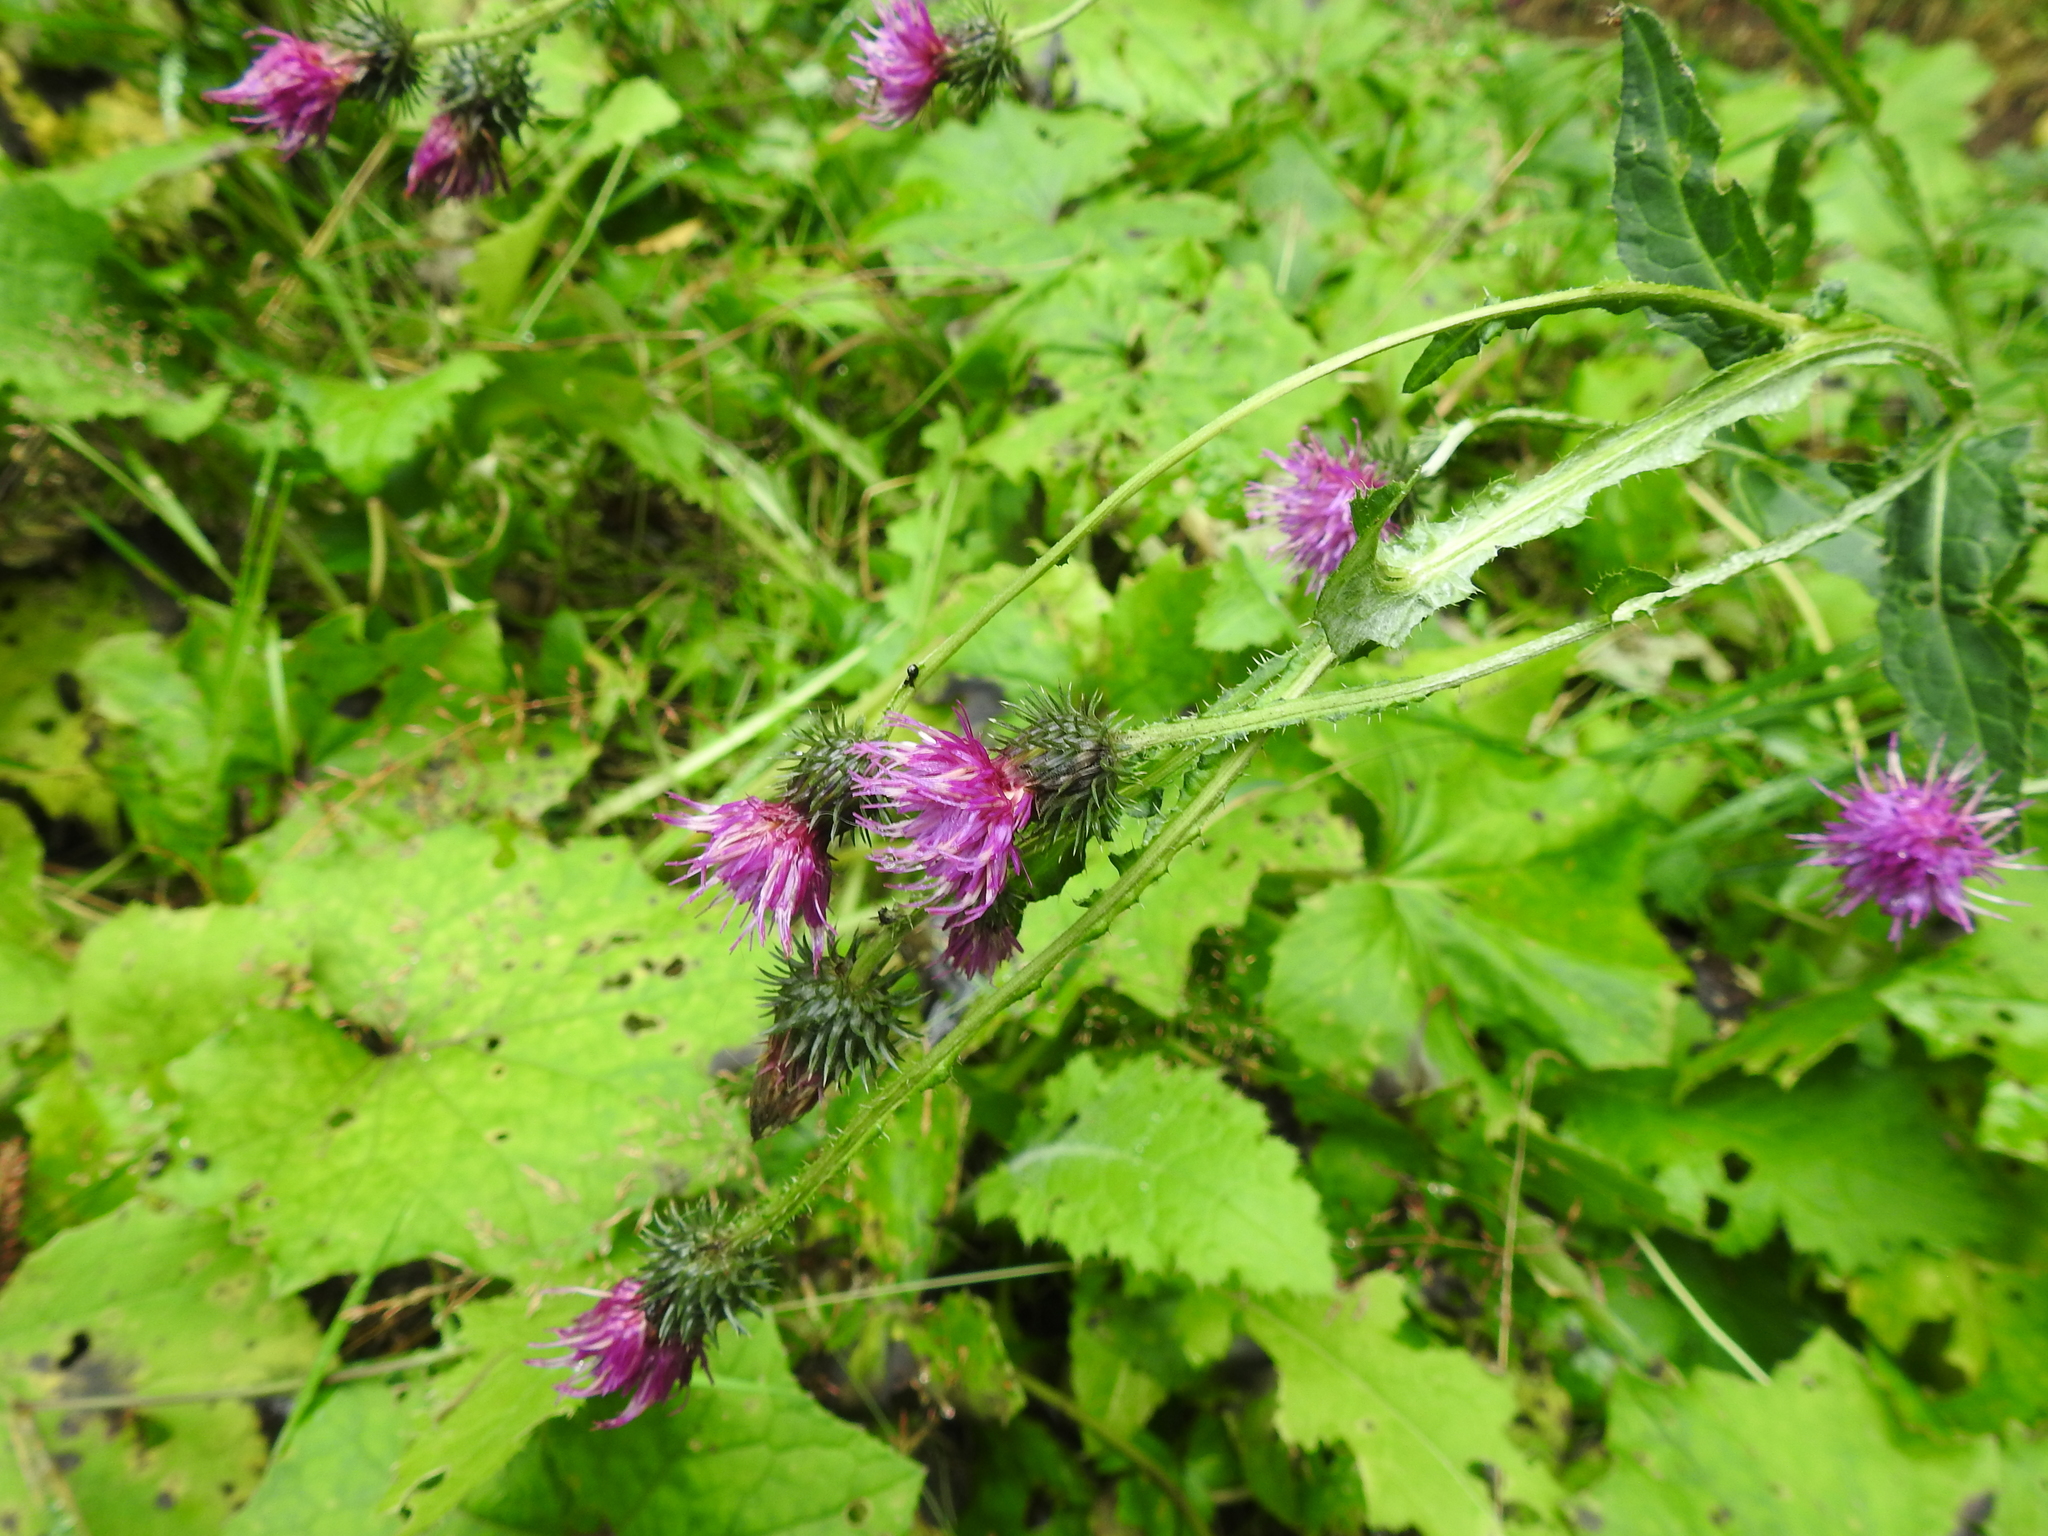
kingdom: Plantae
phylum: Tracheophyta
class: Magnoliopsida
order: Asterales
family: Asteraceae
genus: Carduus
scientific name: Carduus crispus
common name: Welted thistle
